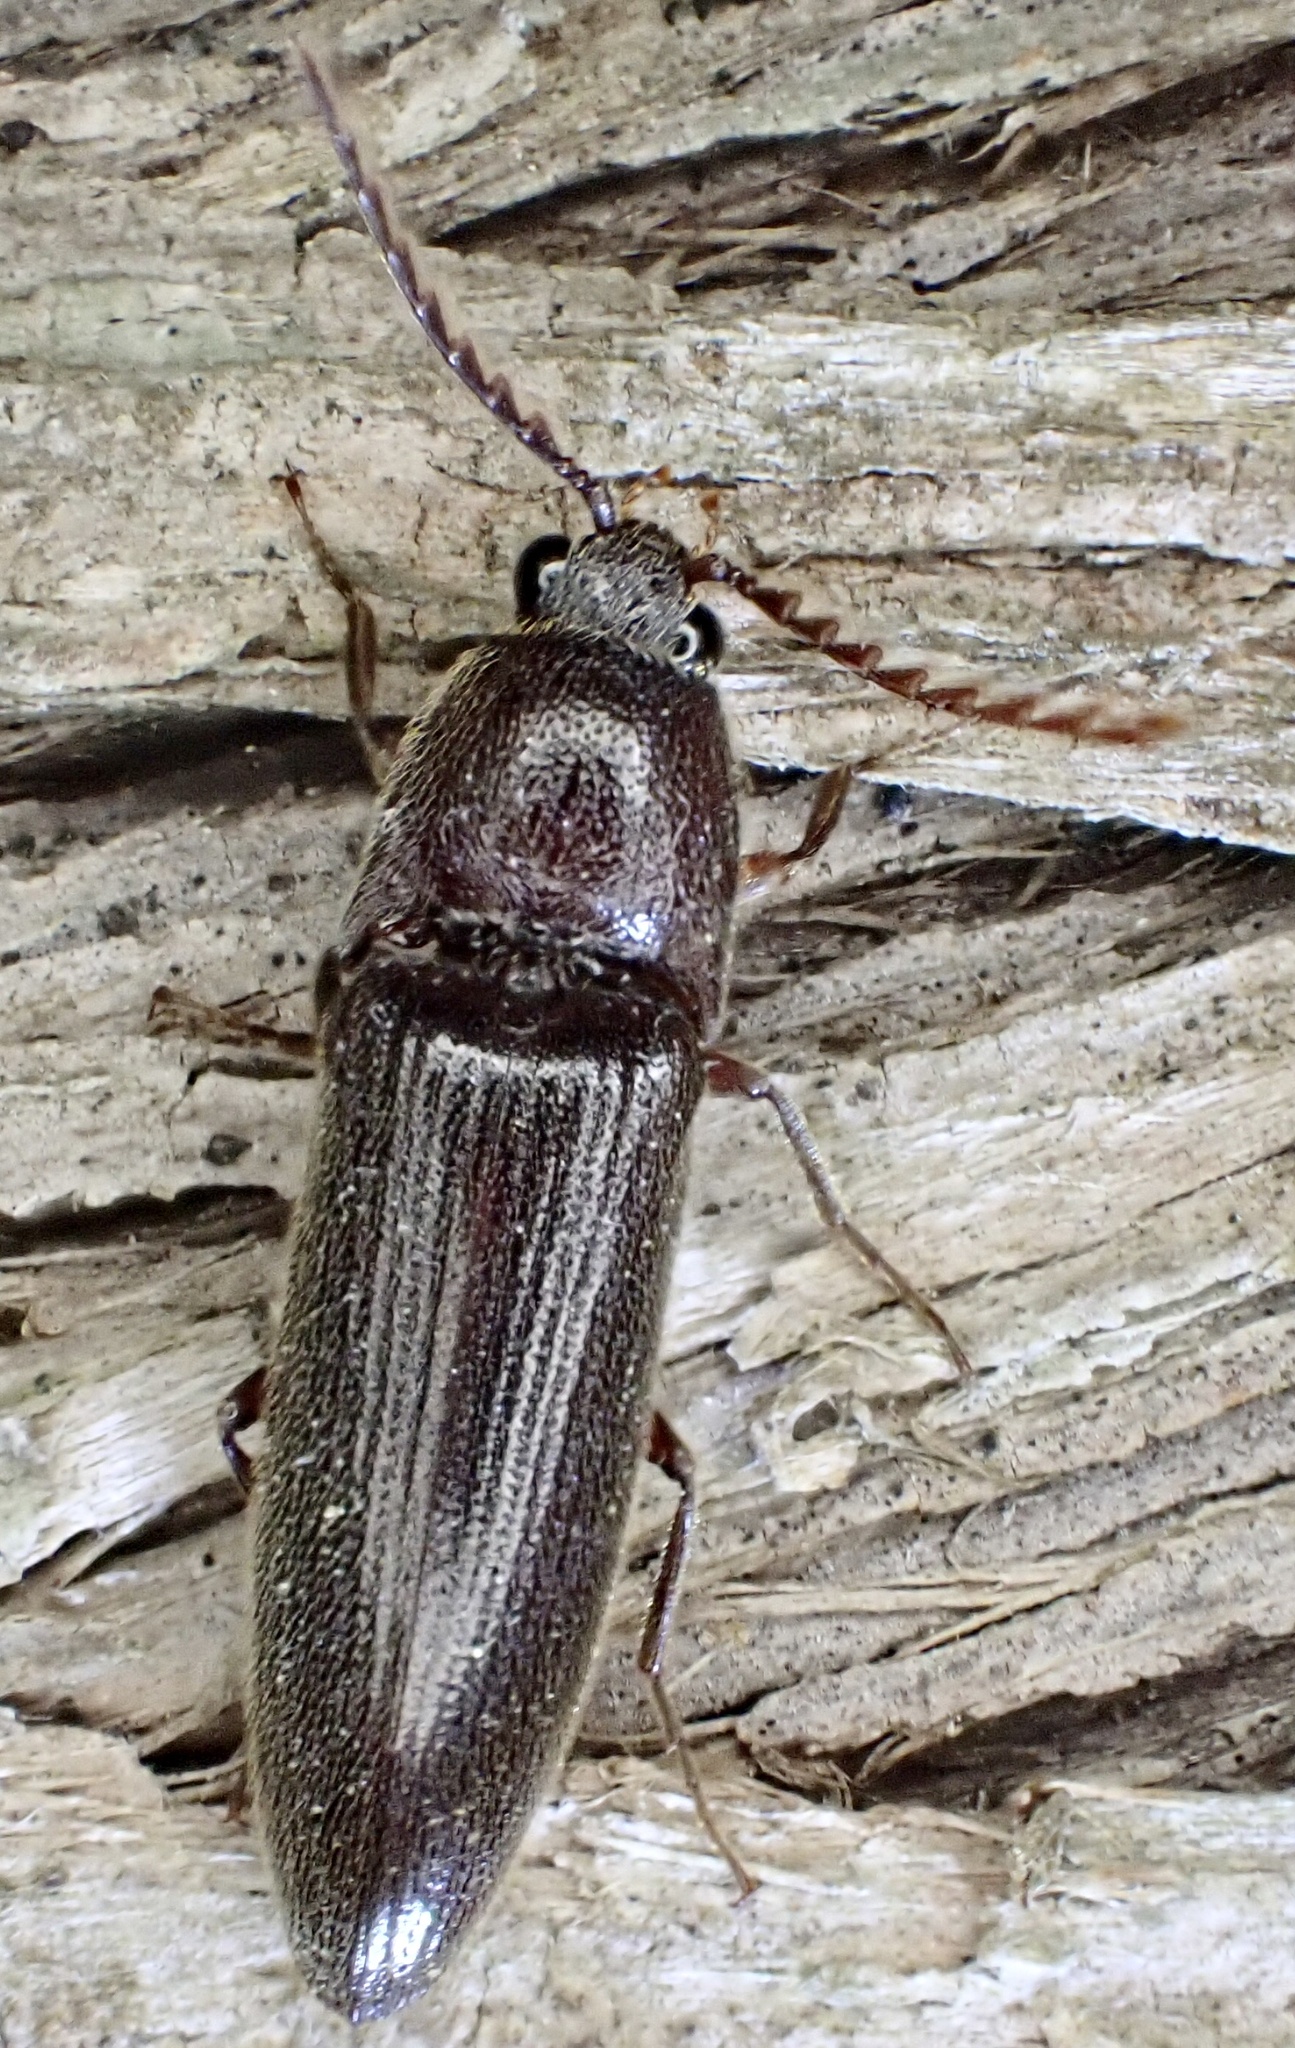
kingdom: Animalia
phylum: Arthropoda
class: Insecta
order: Coleoptera
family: Elateridae
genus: Melanotus
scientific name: Melanotus castanipes
